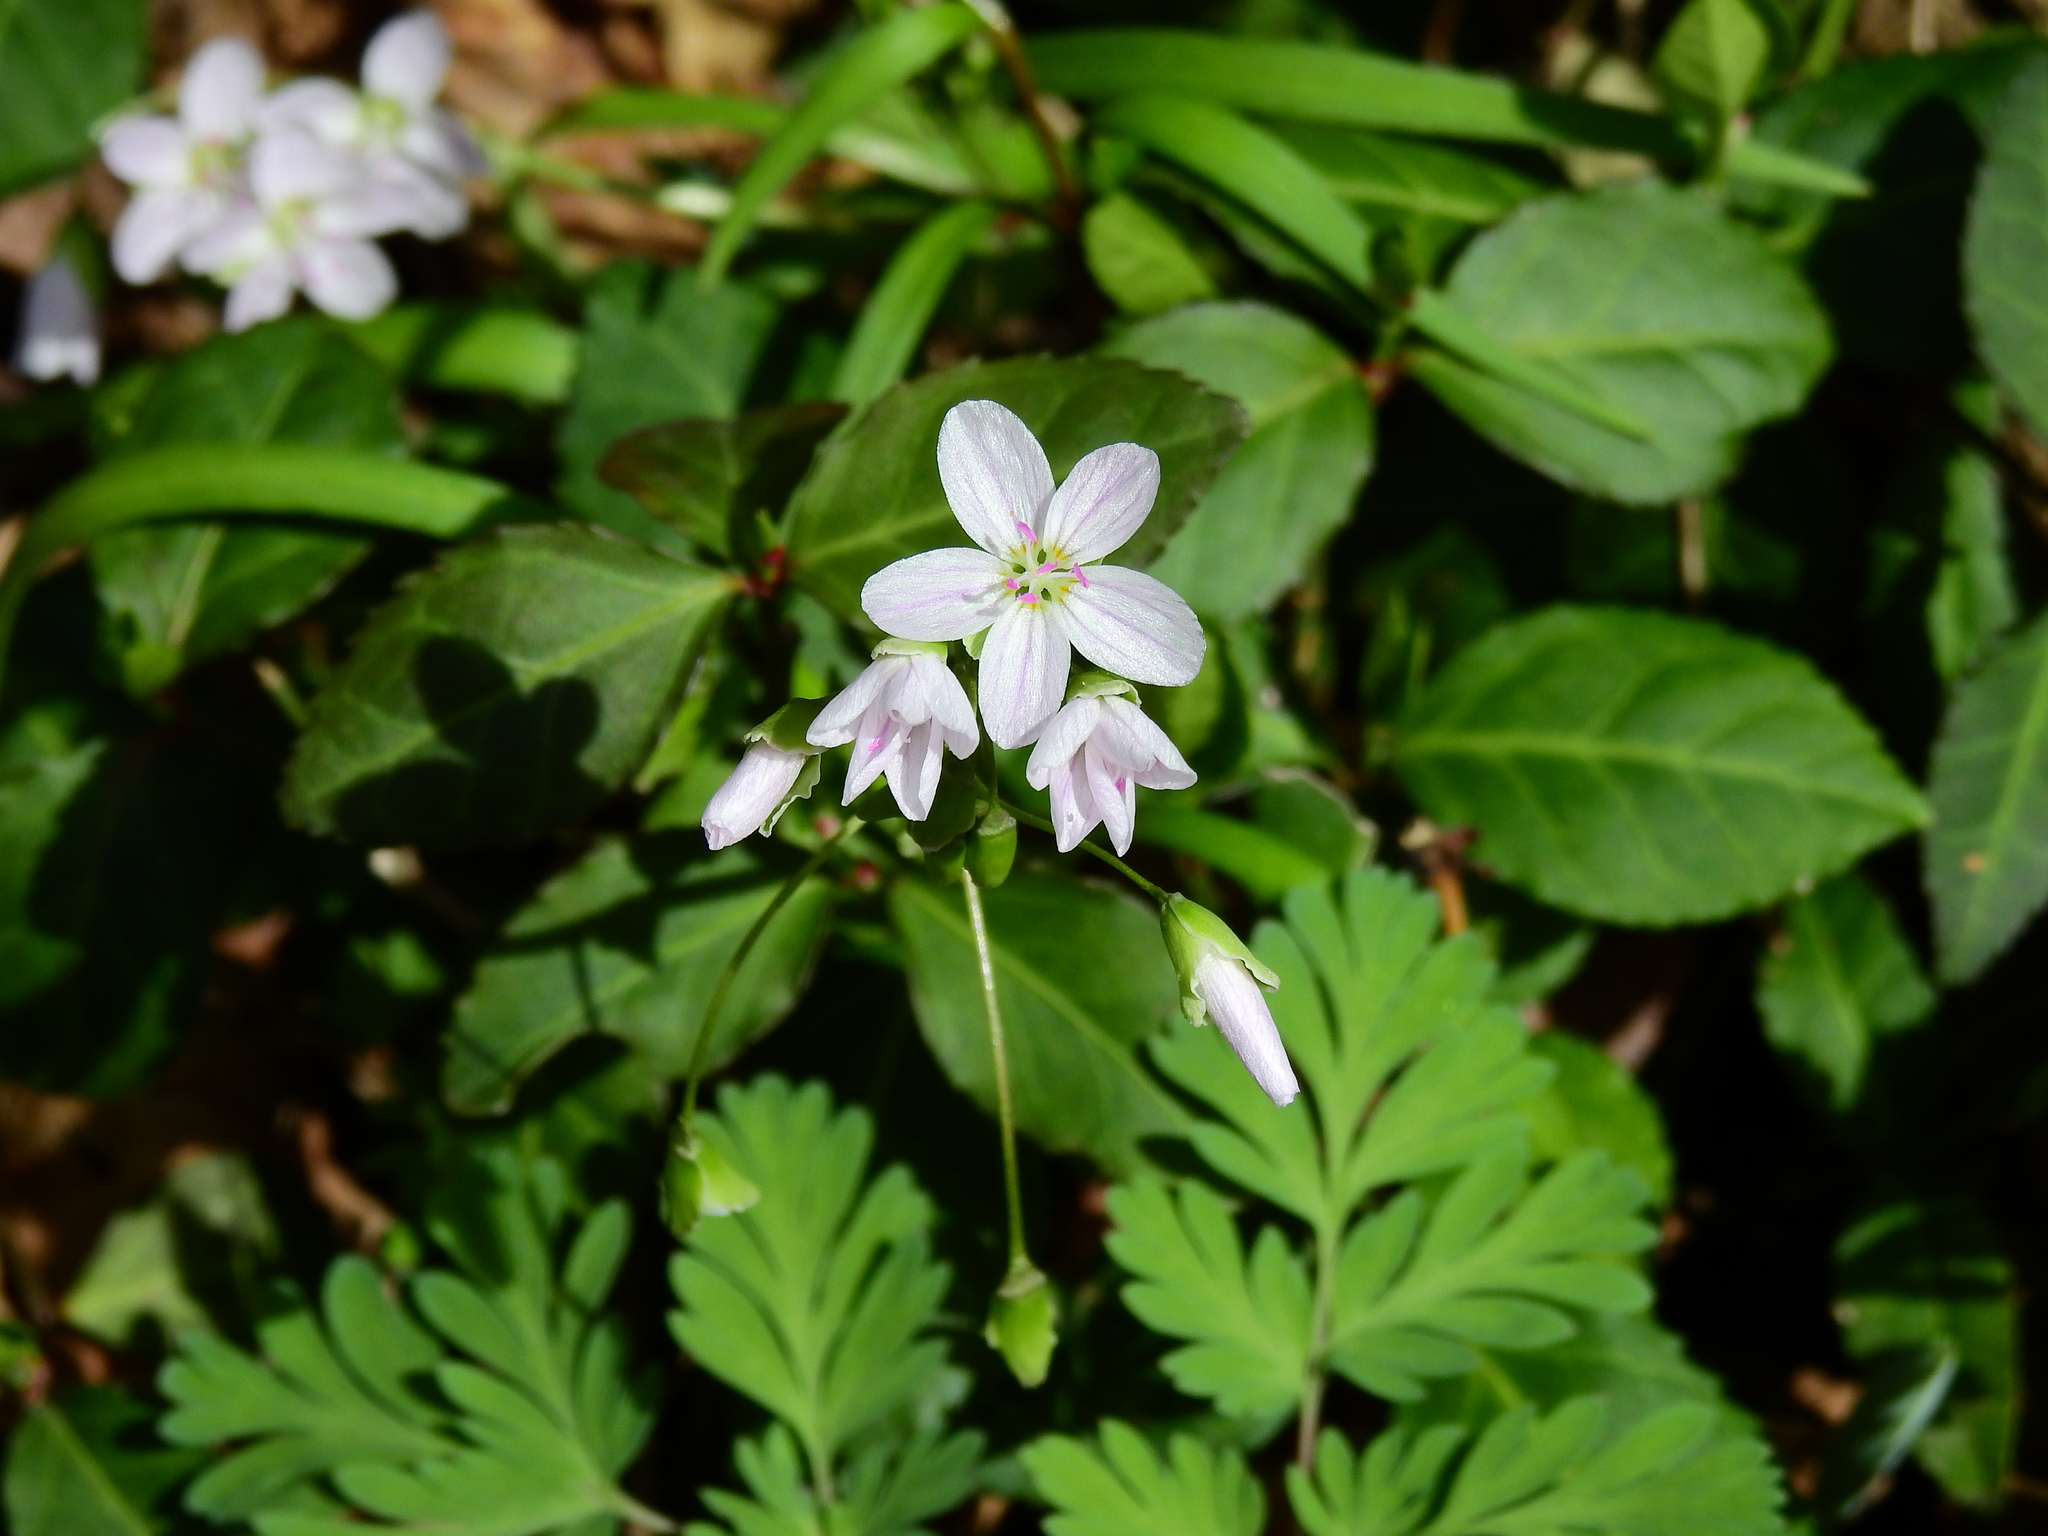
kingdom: Plantae
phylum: Tracheophyta
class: Magnoliopsida
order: Caryophyllales
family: Montiaceae
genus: Claytonia
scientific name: Claytonia virginica
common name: Virginia springbeauty
